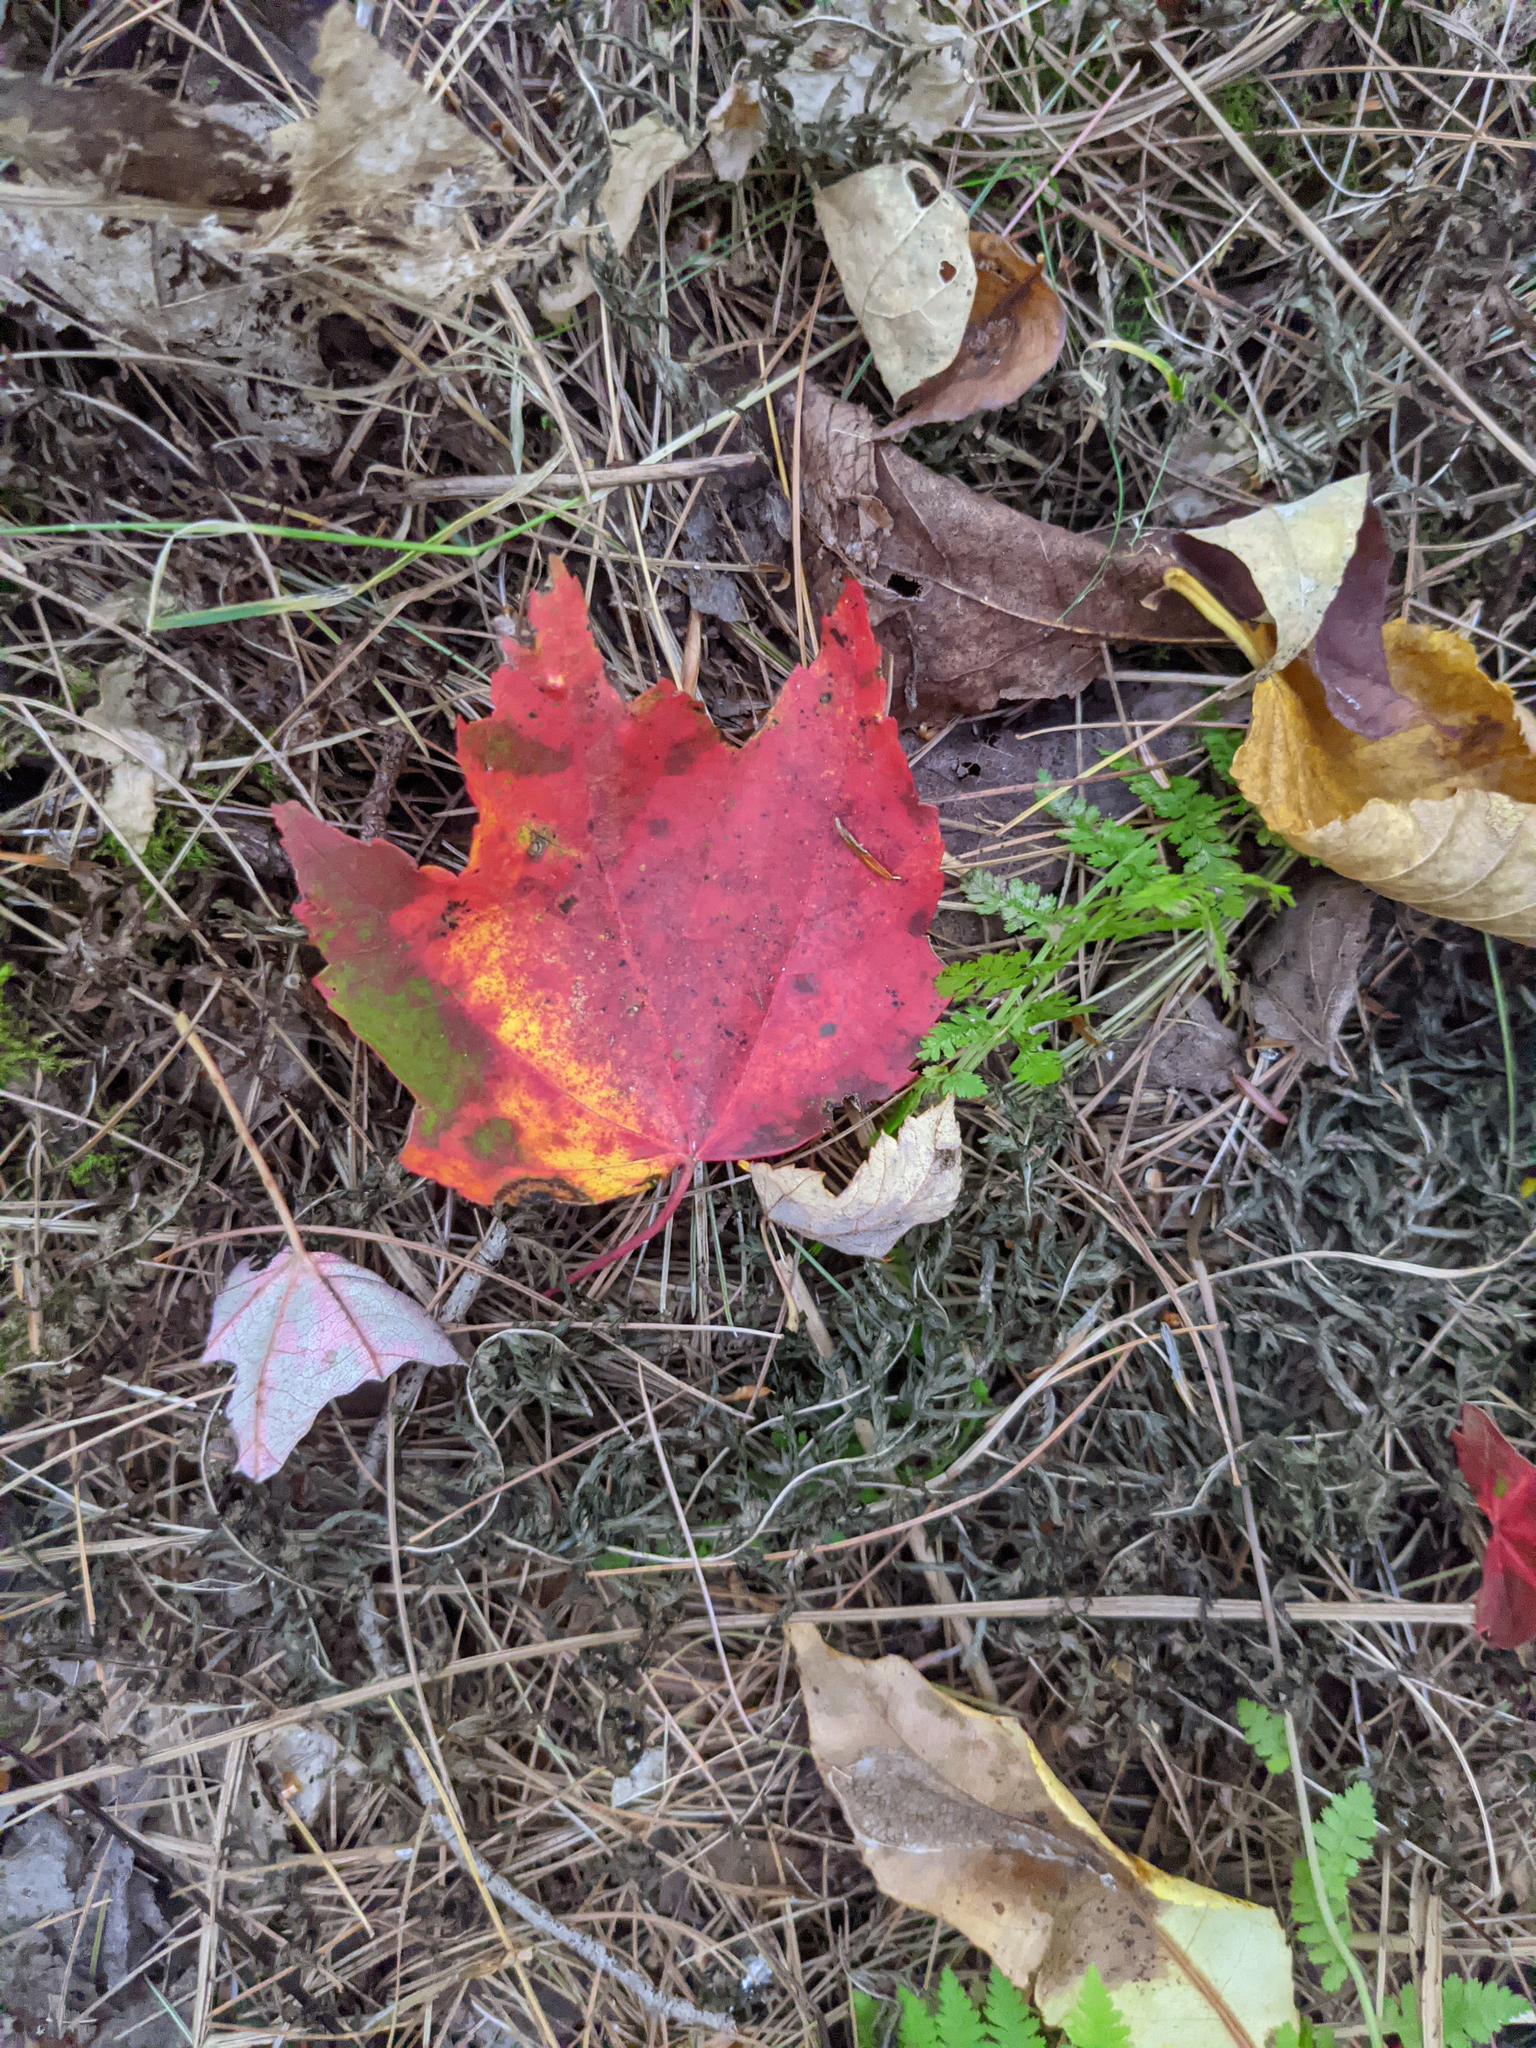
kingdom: Plantae
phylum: Tracheophyta
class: Magnoliopsida
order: Sapindales
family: Sapindaceae
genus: Acer
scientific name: Acer rubrum
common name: Red maple
